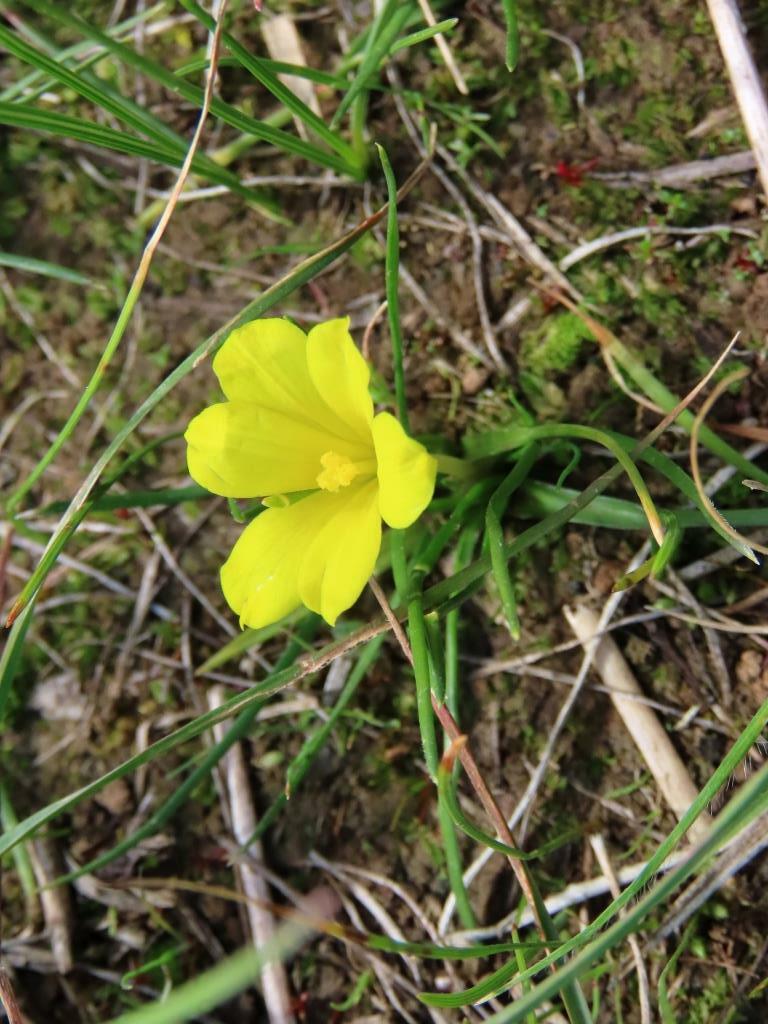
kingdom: Plantae
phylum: Tracheophyta
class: Liliopsida
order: Asparagales
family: Iridaceae
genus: Moraea
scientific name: Moraea fugacissima
